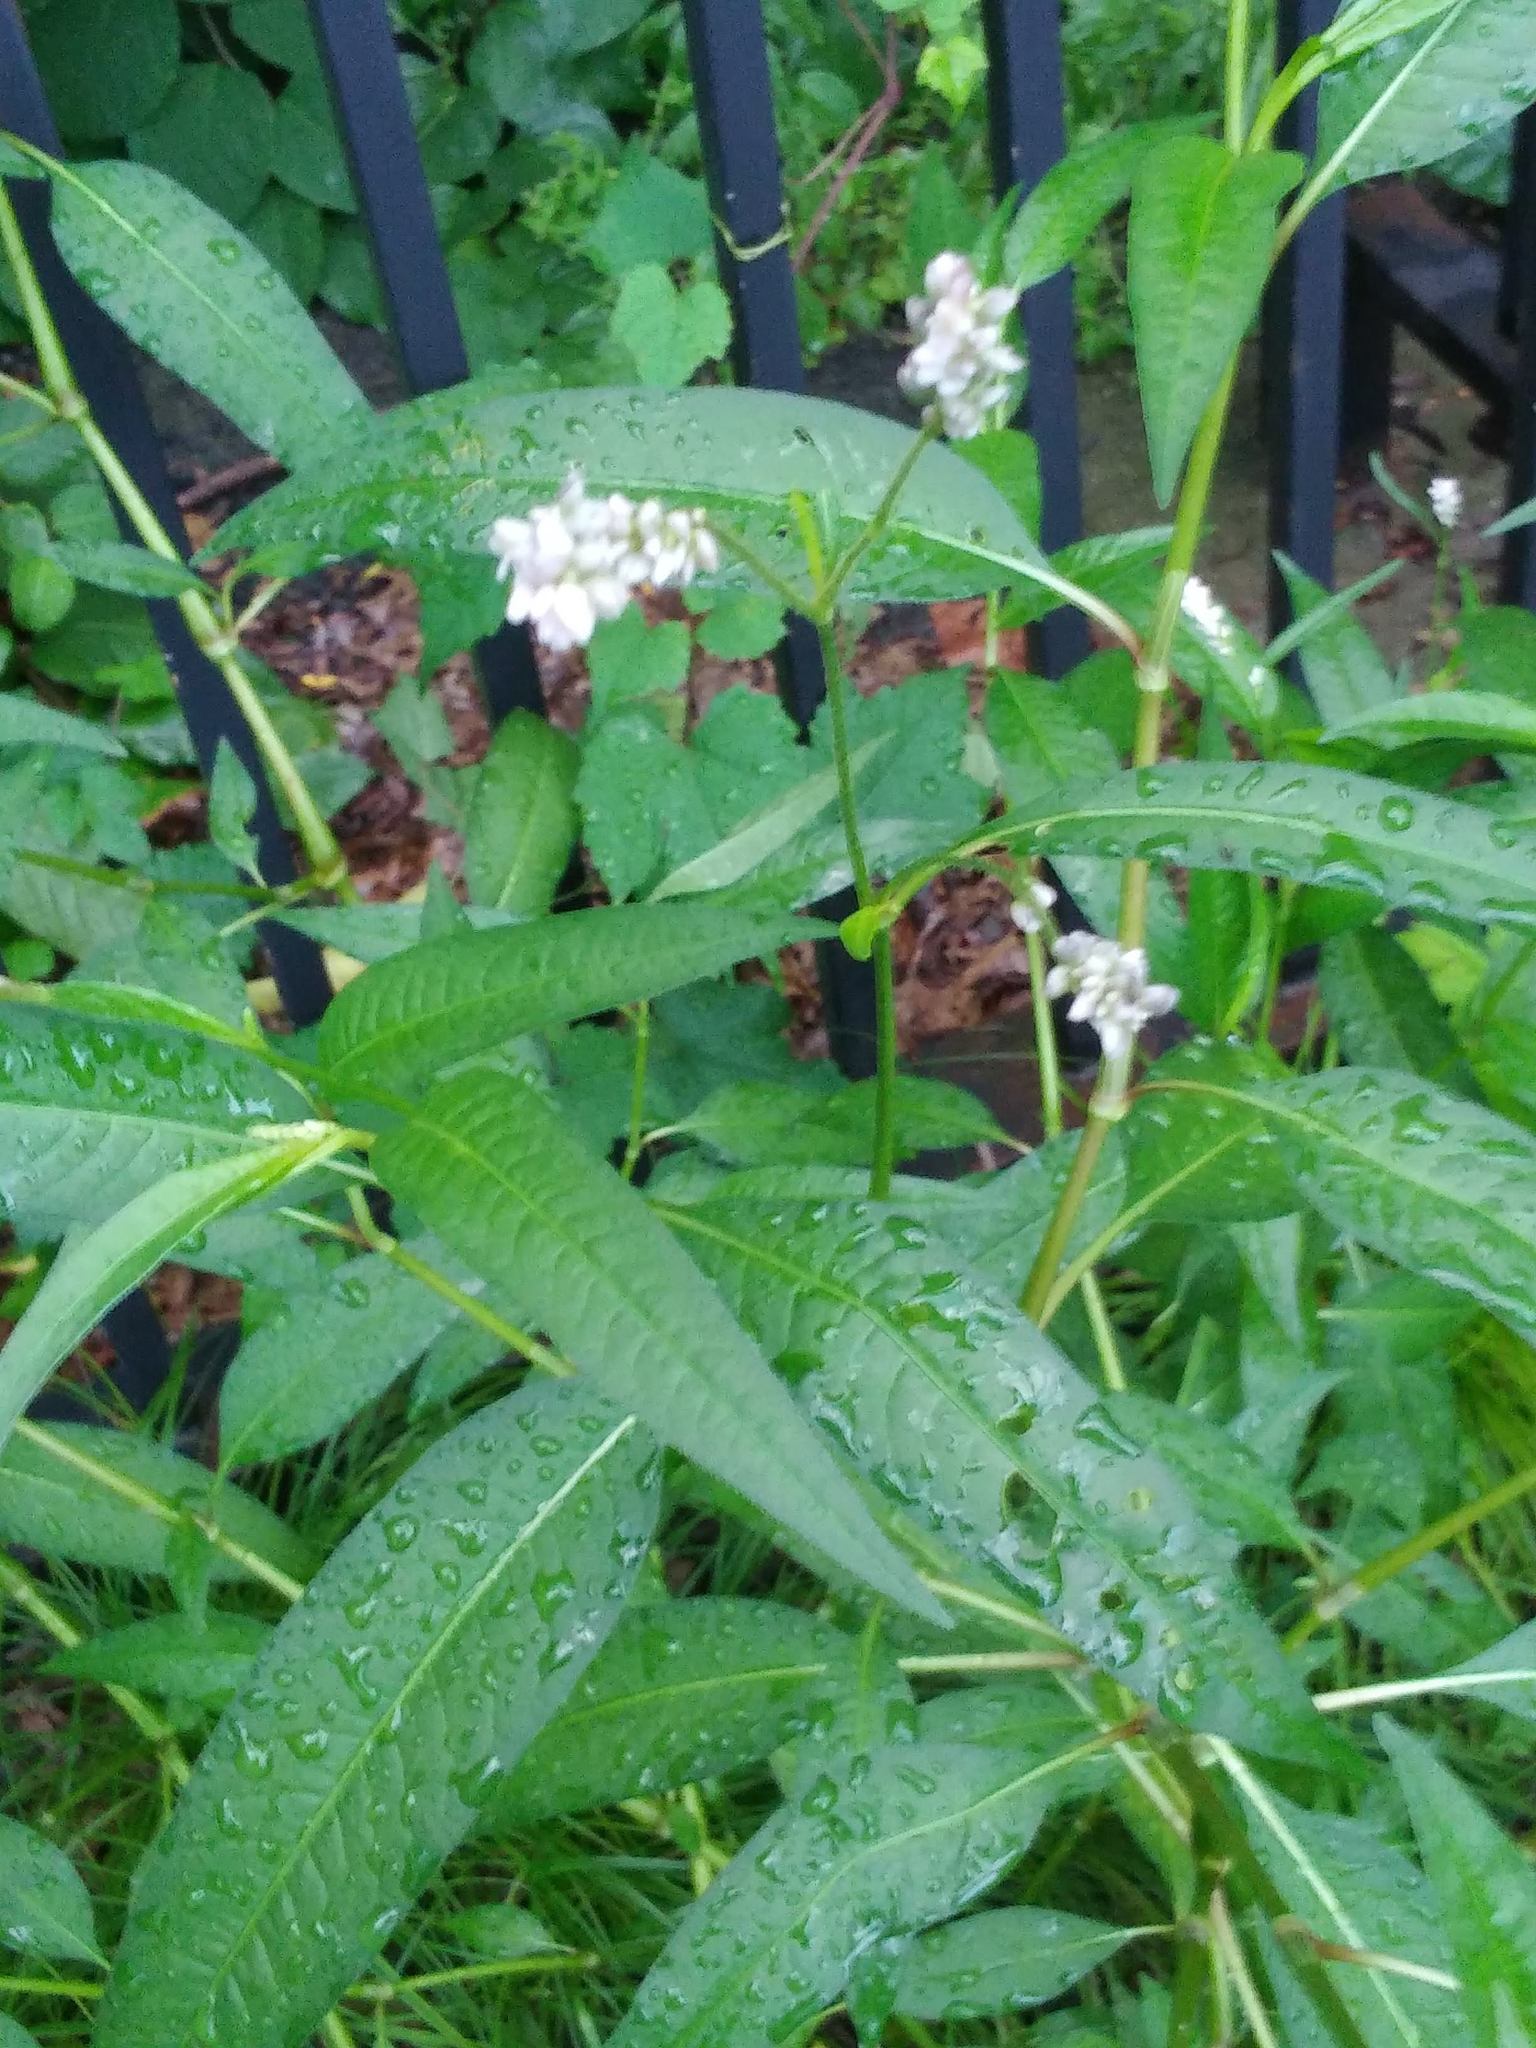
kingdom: Plantae
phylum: Tracheophyta
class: Magnoliopsida
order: Caryophyllales
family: Polygonaceae
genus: Persicaria
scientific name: Persicaria pensylvanica
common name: Pinkweed
